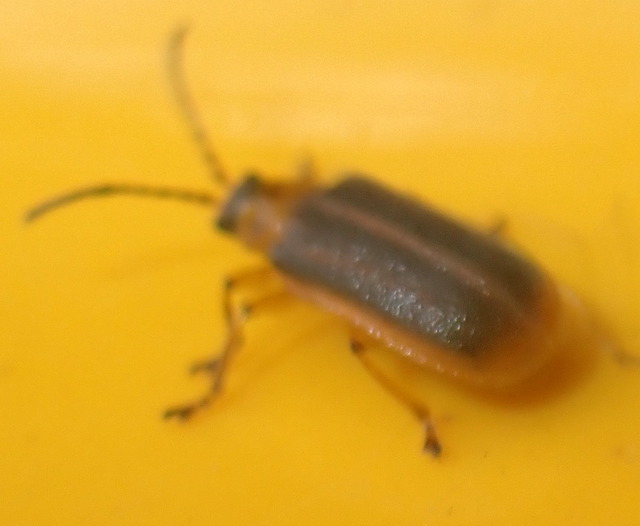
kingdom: Animalia
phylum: Arthropoda
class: Insecta
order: Coleoptera
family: Chrysomelidae
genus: Galerucella
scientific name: Galerucella nymphaeae
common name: Leaf beetle
